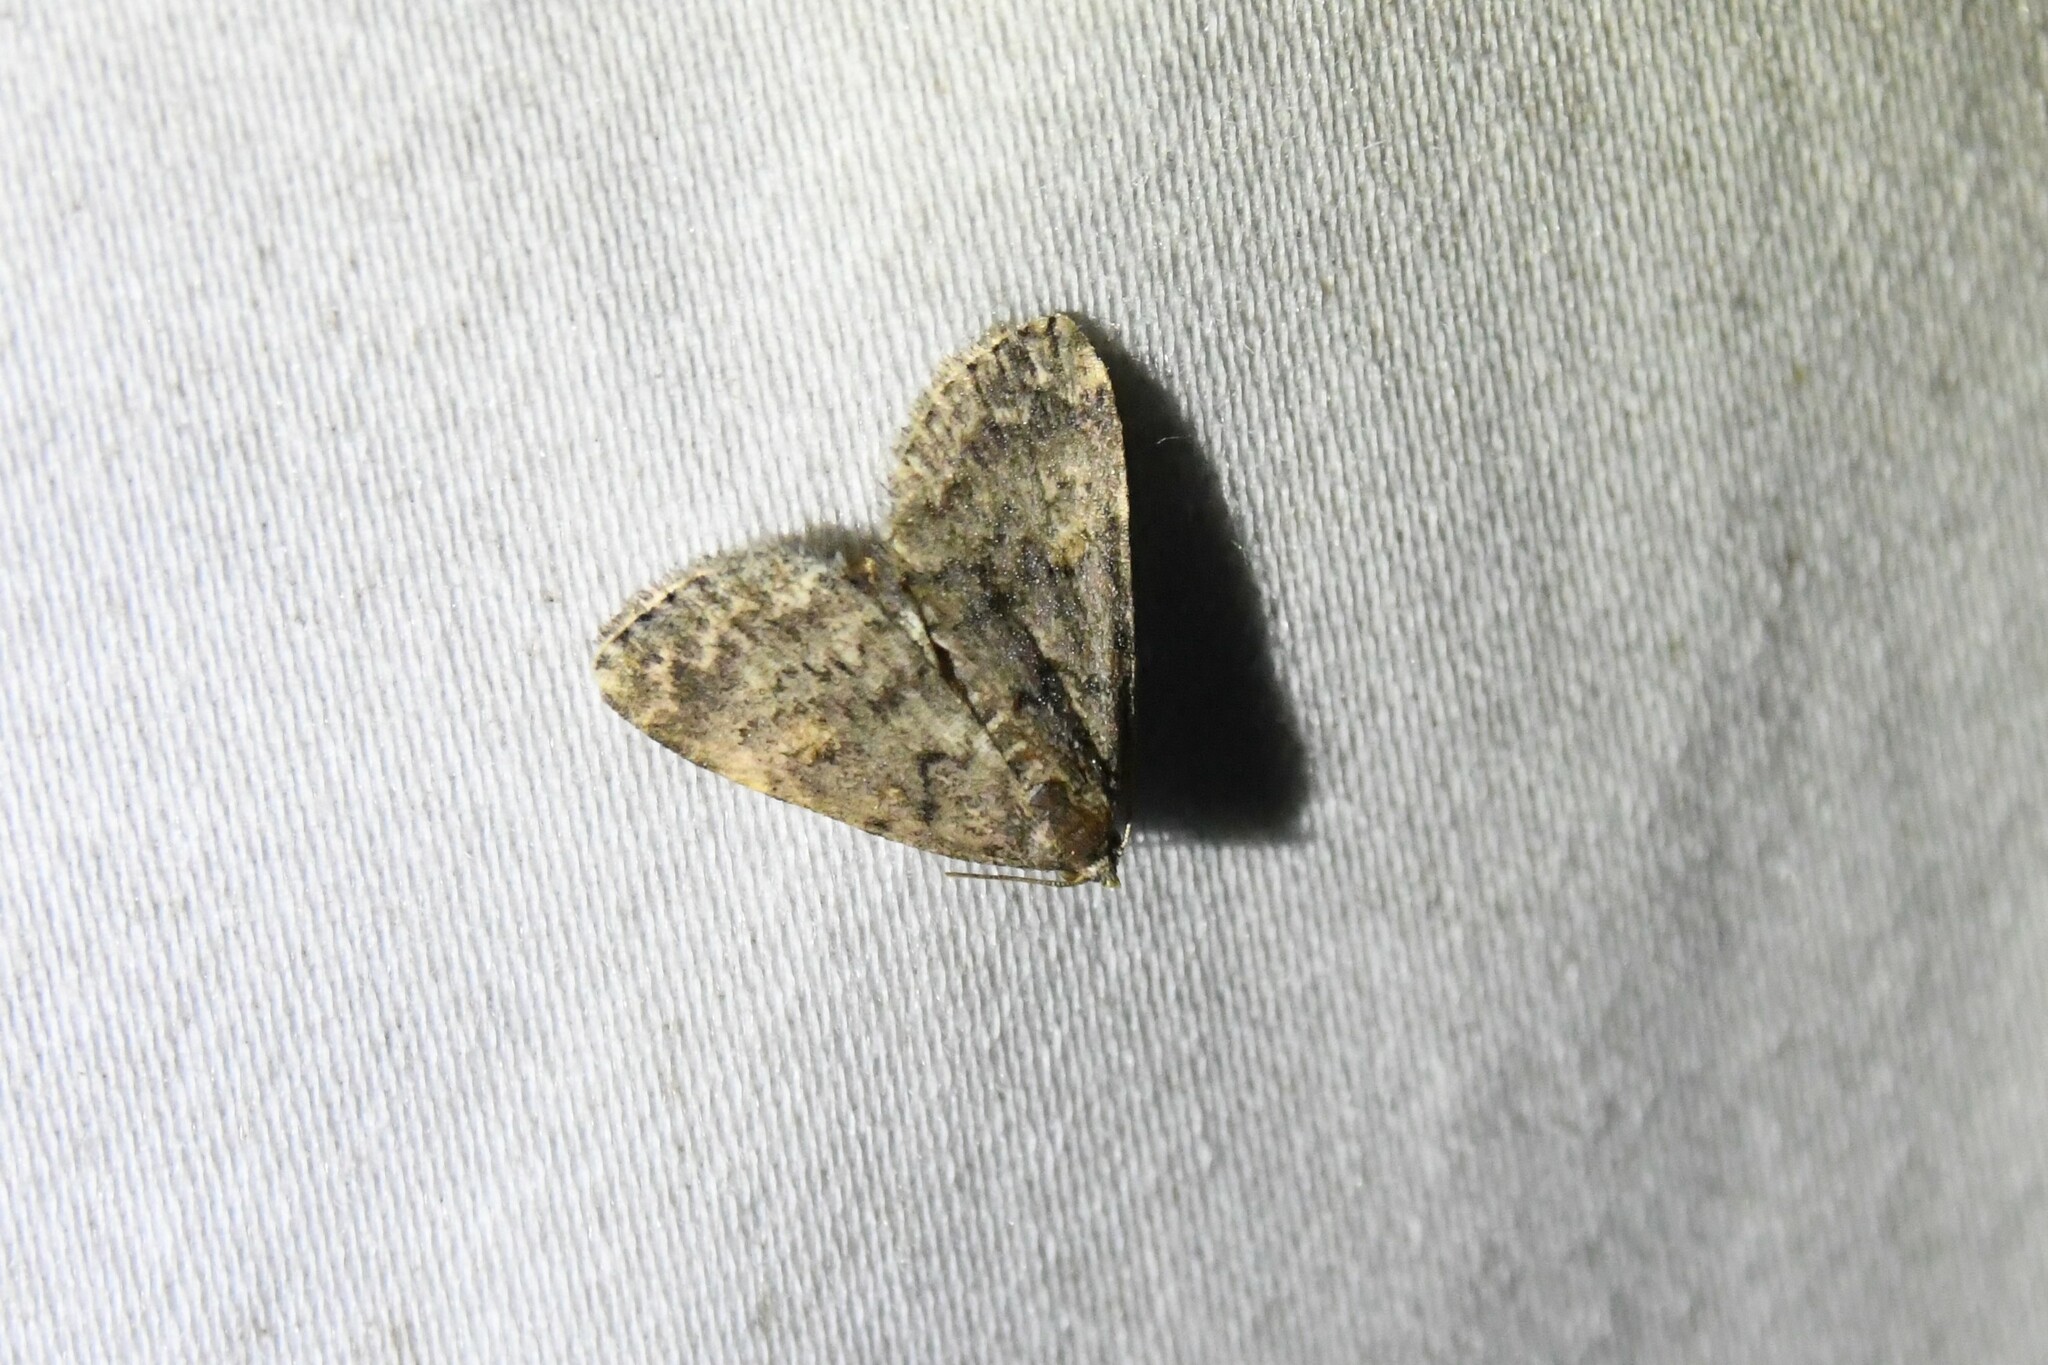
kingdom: Animalia
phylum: Arthropoda
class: Insecta
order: Lepidoptera
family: Erebidae
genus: Idia
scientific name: Idia aemula
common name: Common idia moth
